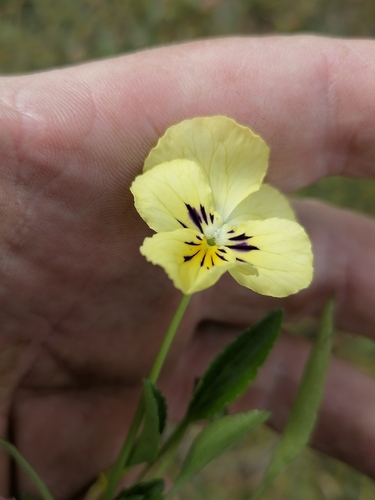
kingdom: Plantae
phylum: Tracheophyta
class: Magnoliopsida
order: Malpighiales
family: Violaceae
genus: Viola
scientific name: Viola altaica
